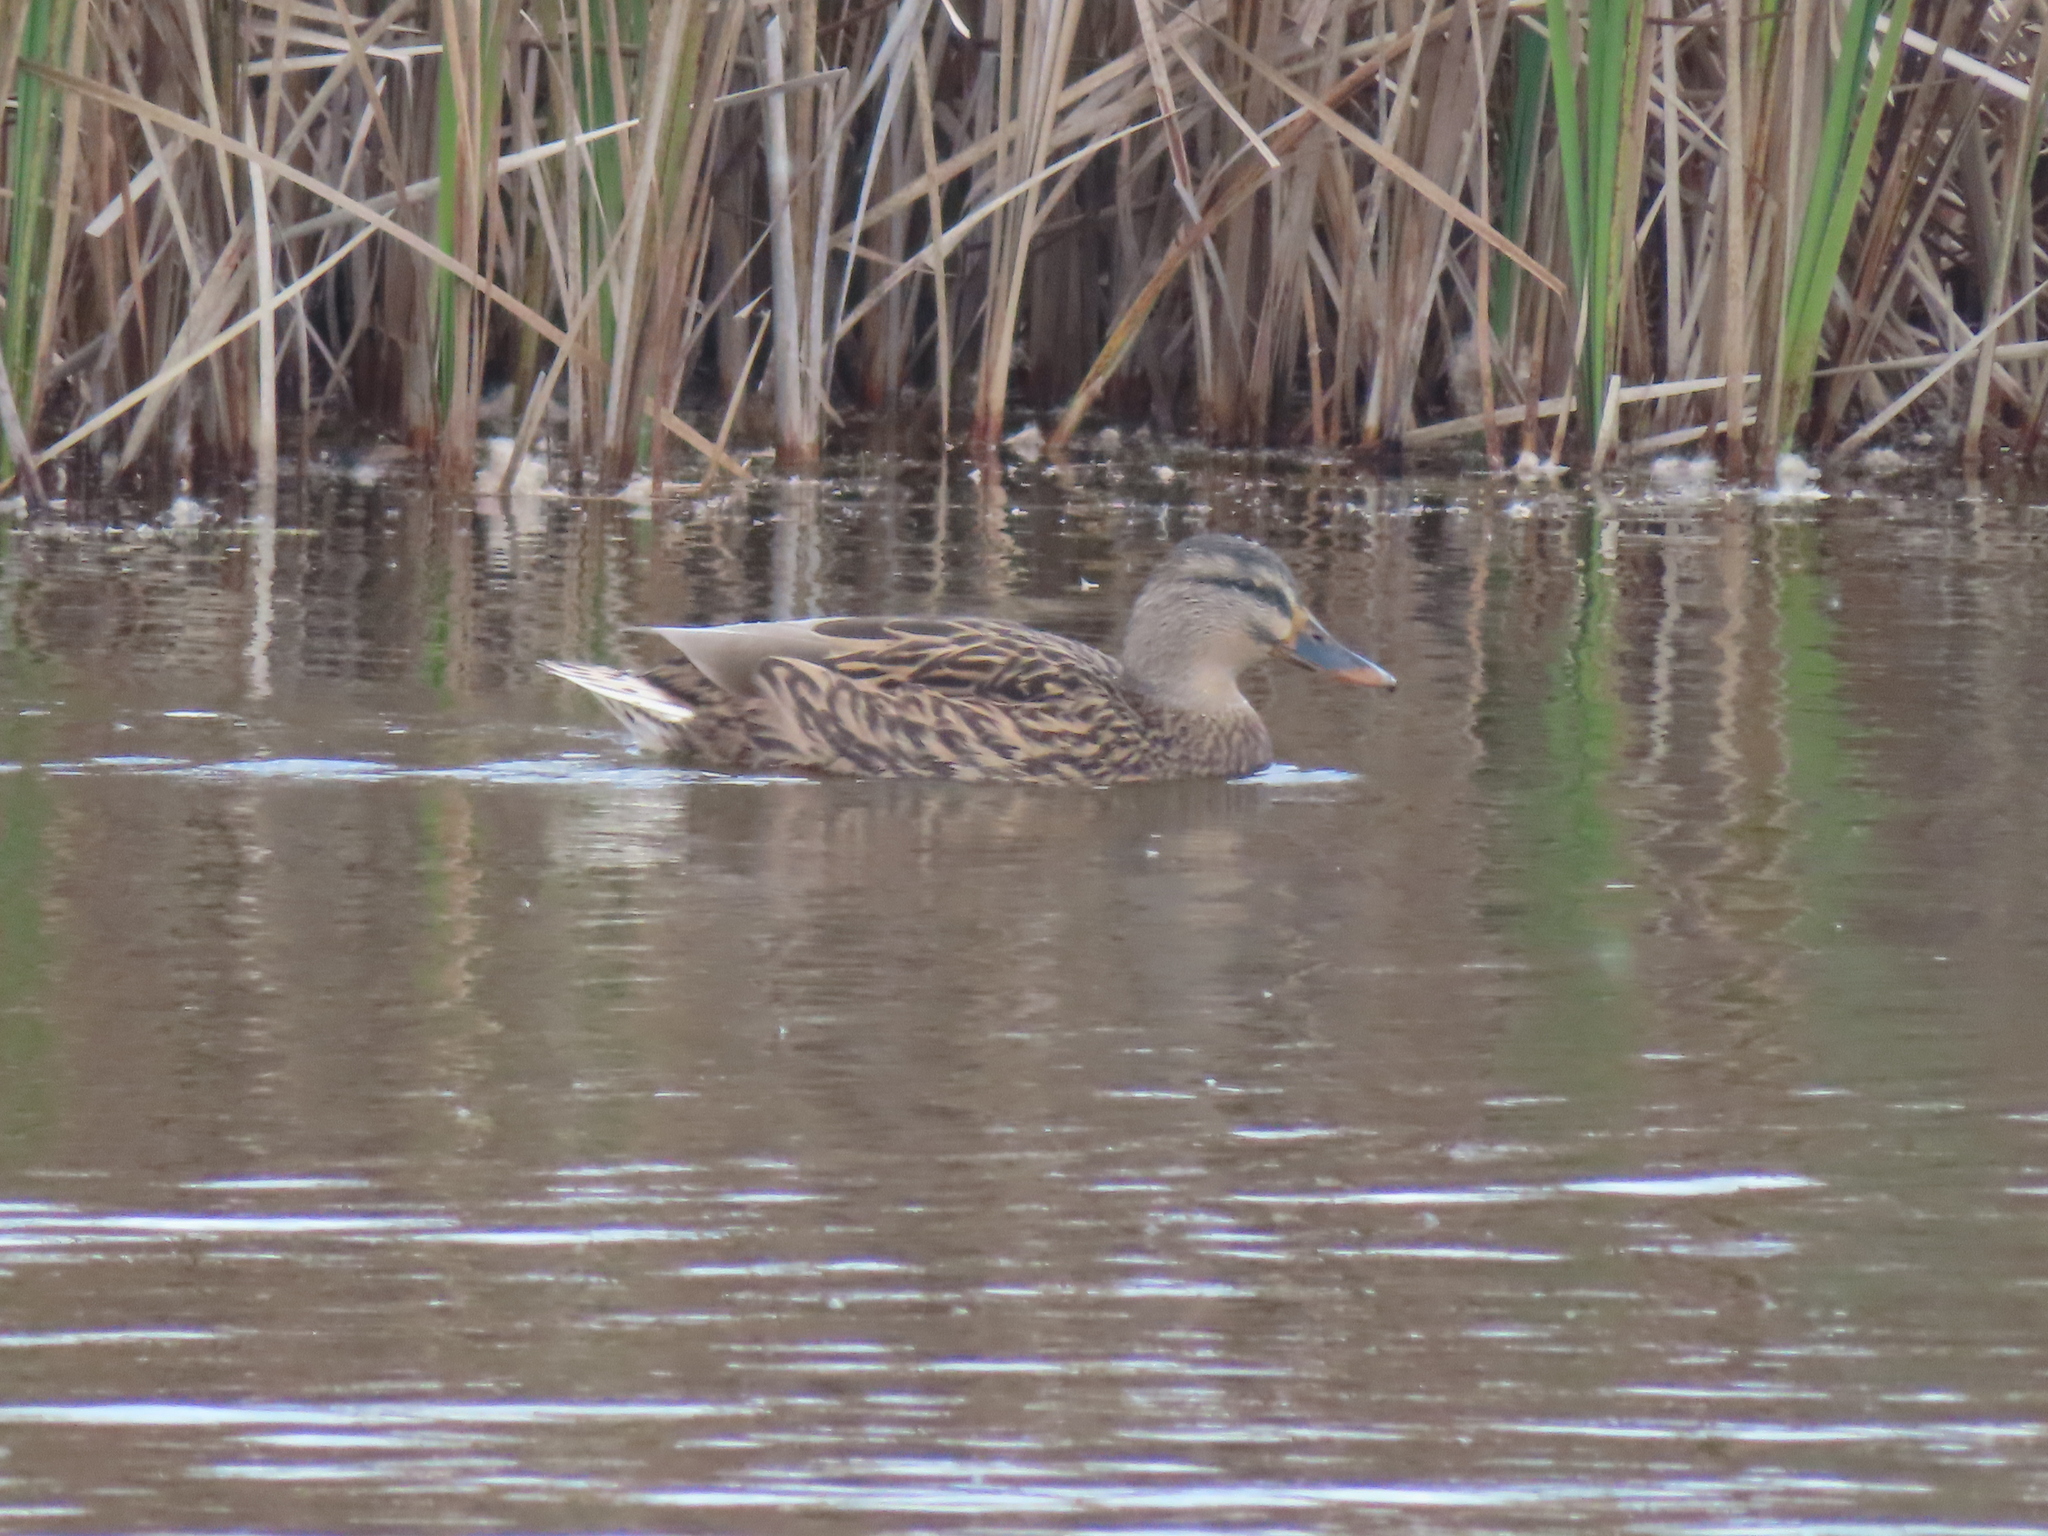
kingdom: Animalia
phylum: Chordata
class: Aves
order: Anseriformes
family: Anatidae
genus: Anas
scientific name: Anas platyrhynchos
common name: Mallard
